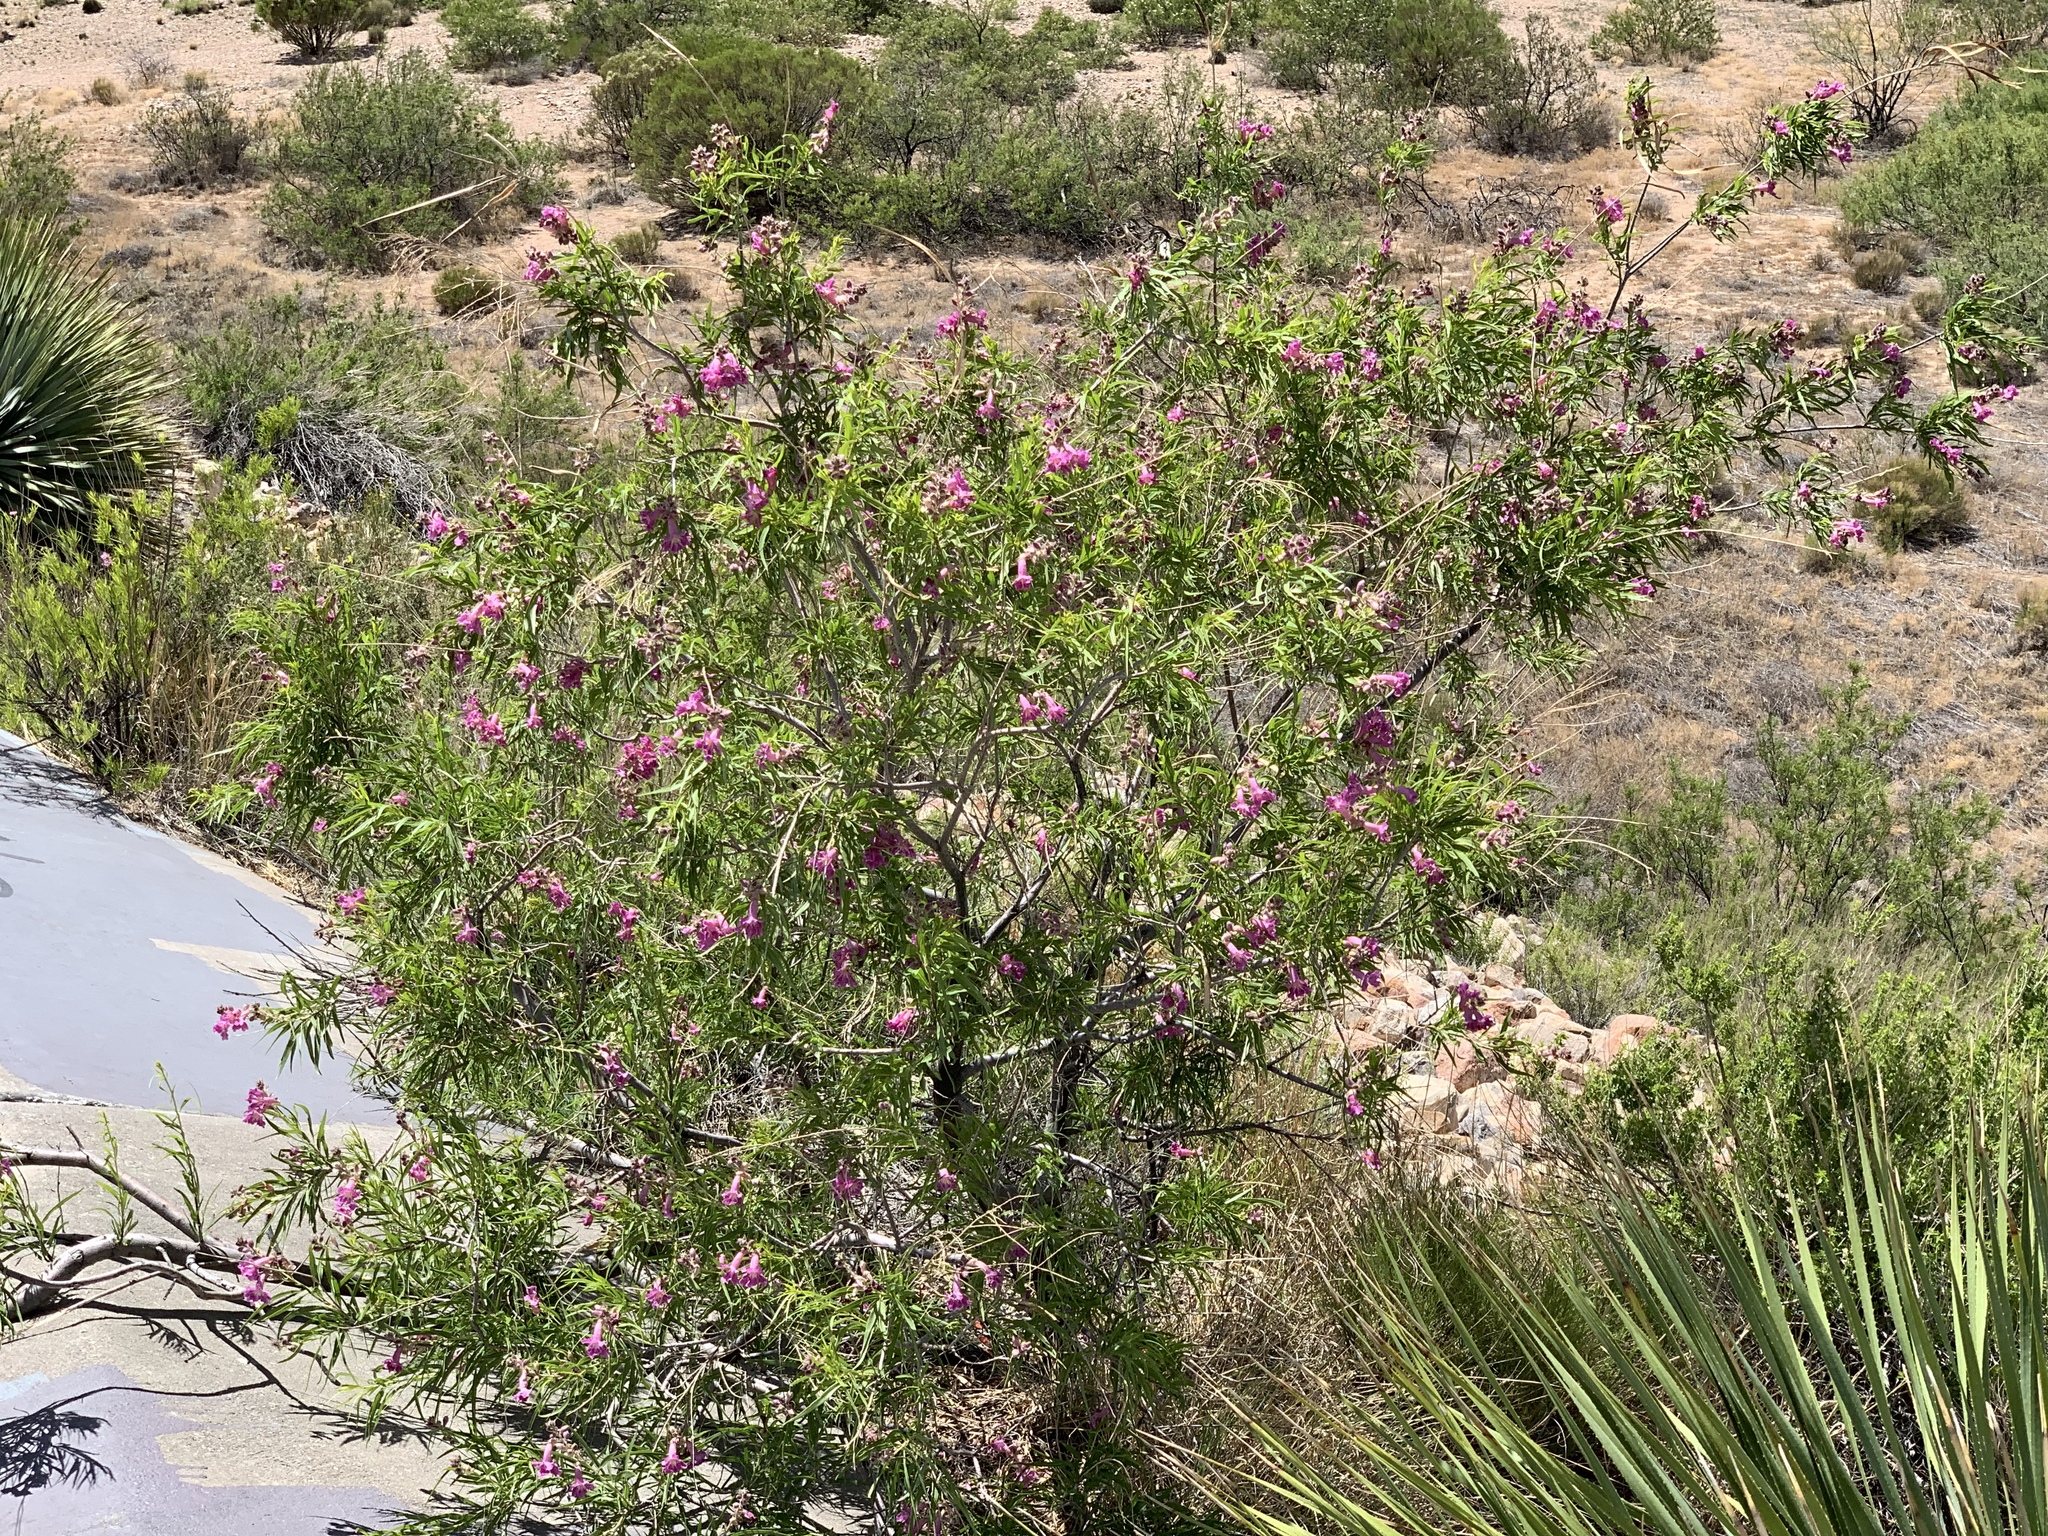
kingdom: Plantae
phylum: Tracheophyta
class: Magnoliopsida
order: Lamiales
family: Bignoniaceae
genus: Chilopsis
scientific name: Chilopsis linearis
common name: Desert-willow
